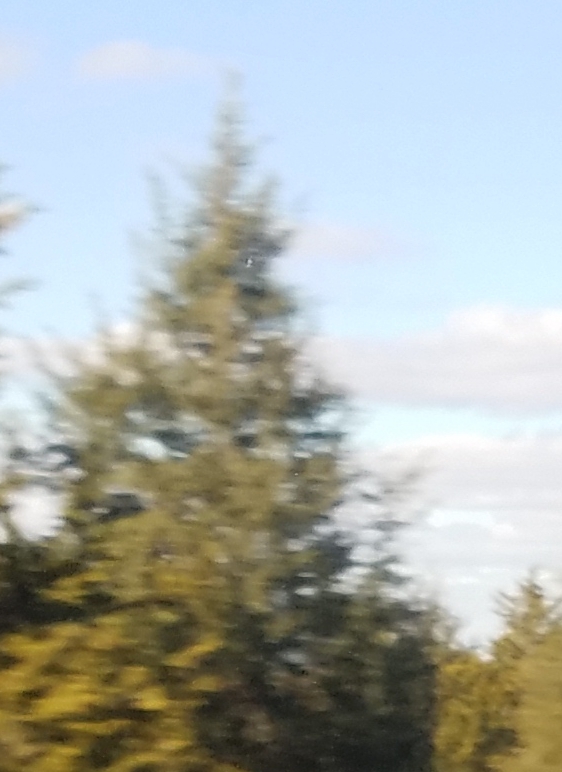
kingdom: Plantae
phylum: Tracheophyta
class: Pinopsida
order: Pinales
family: Cupressaceae
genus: Juniperus
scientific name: Juniperus virginiana
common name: Red juniper
